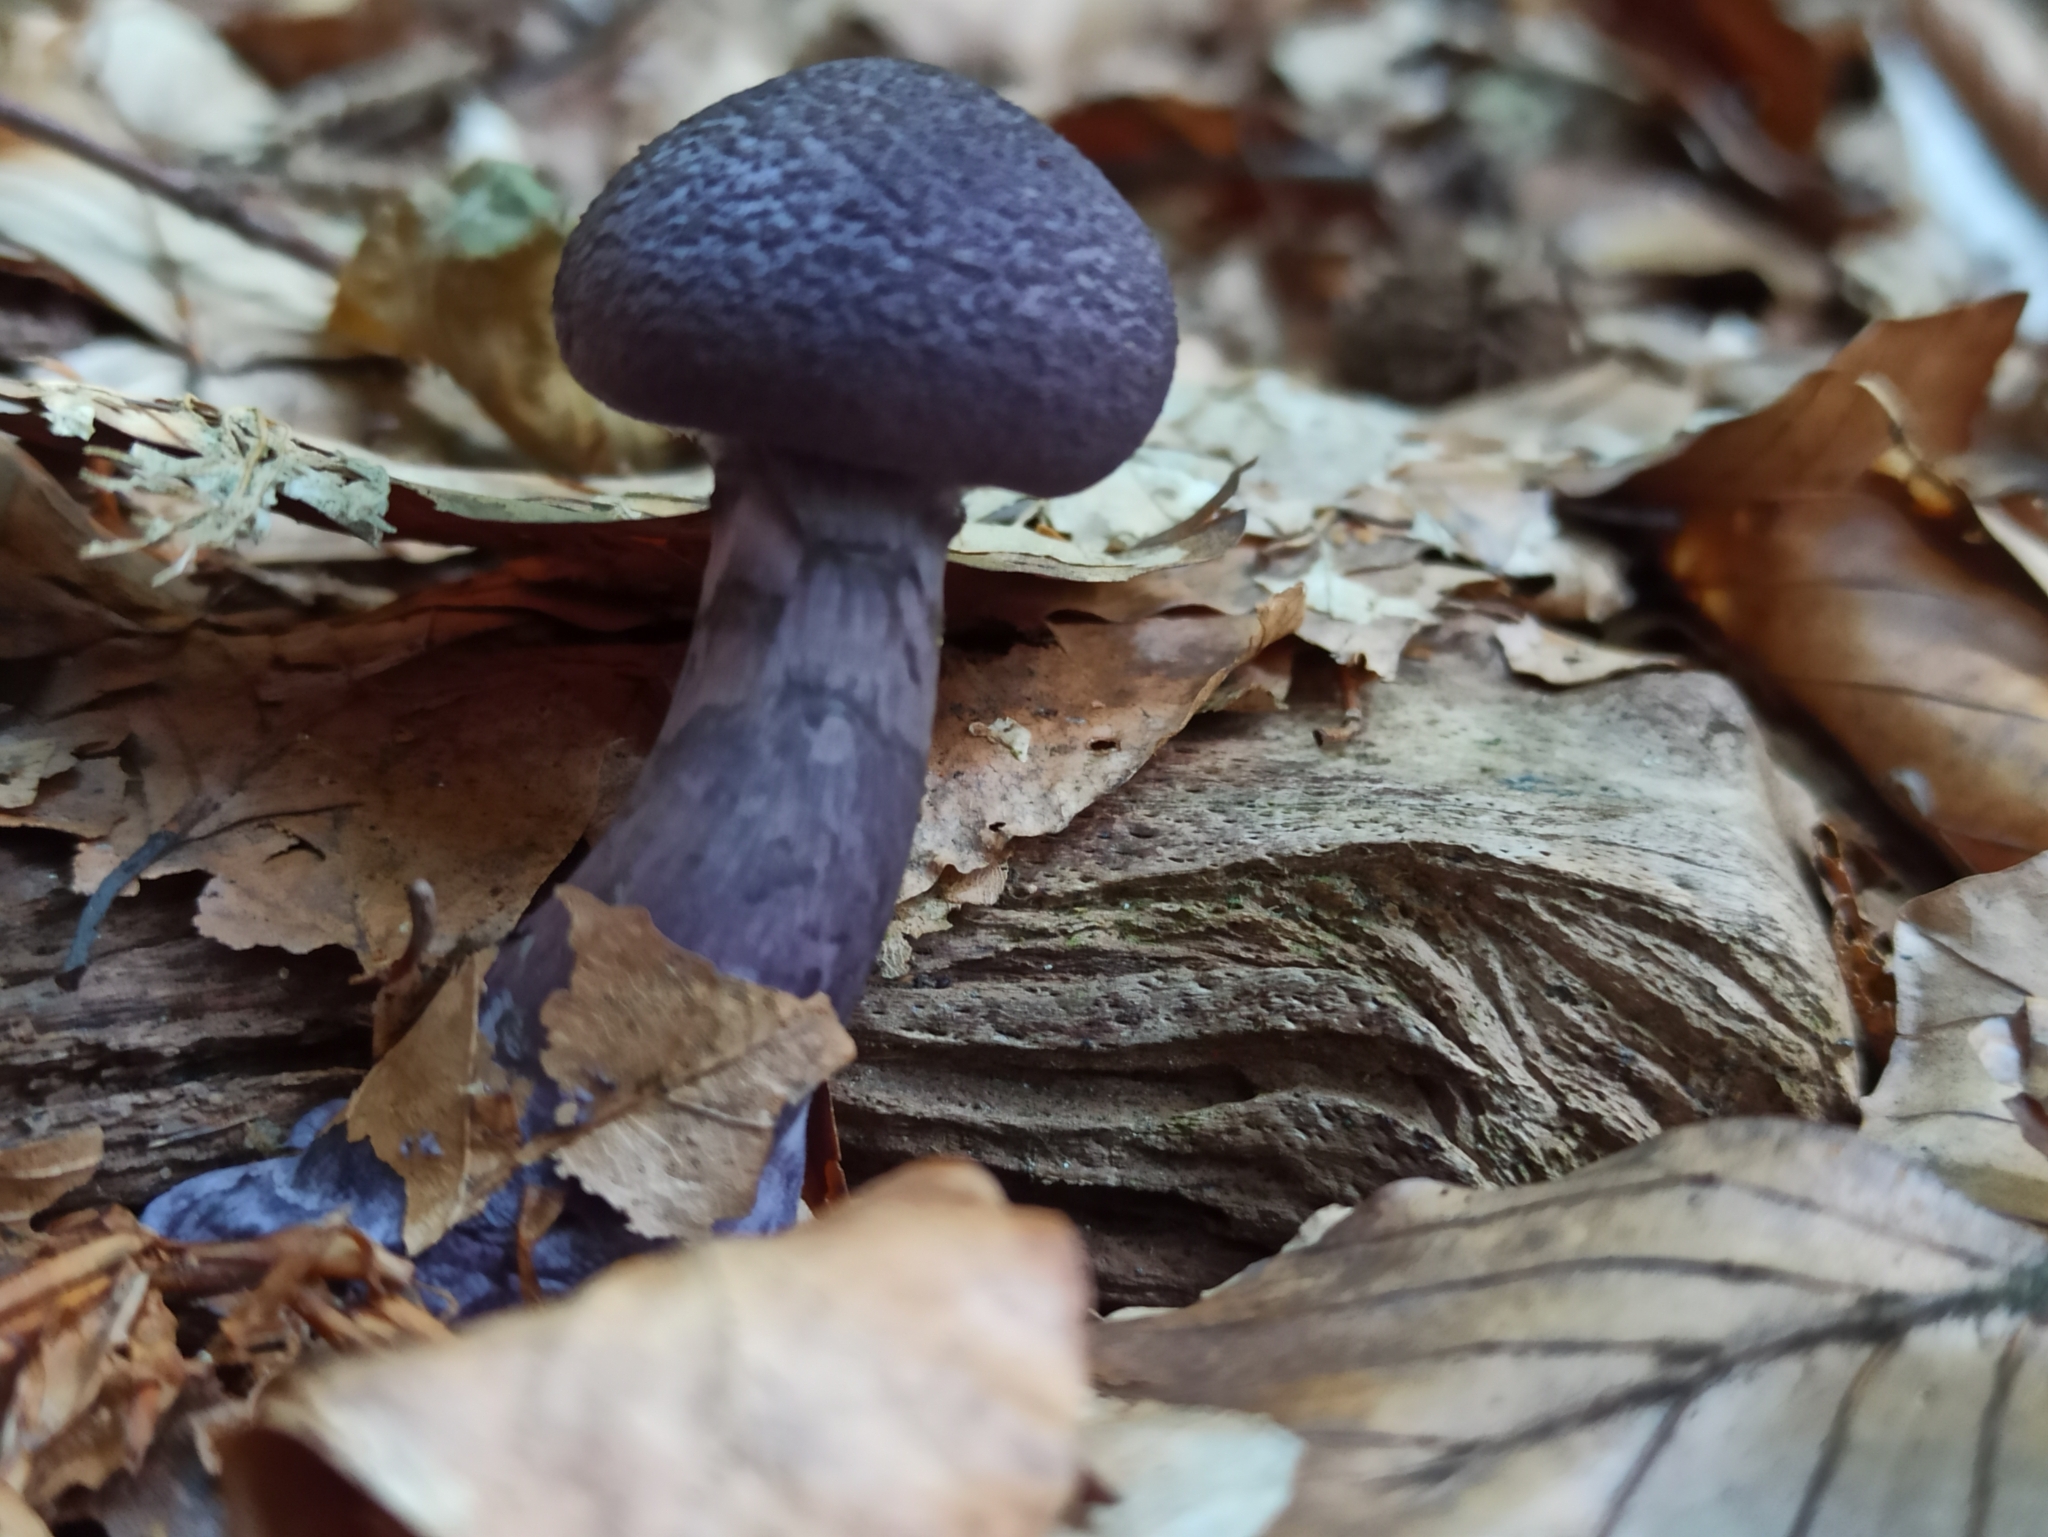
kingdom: Fungi
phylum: Basidiomycota
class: Agaricomycetes
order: Agaricales
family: Cortinariaceae
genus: Cortinarius
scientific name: Cortinarius violaceus
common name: Violet webcap
